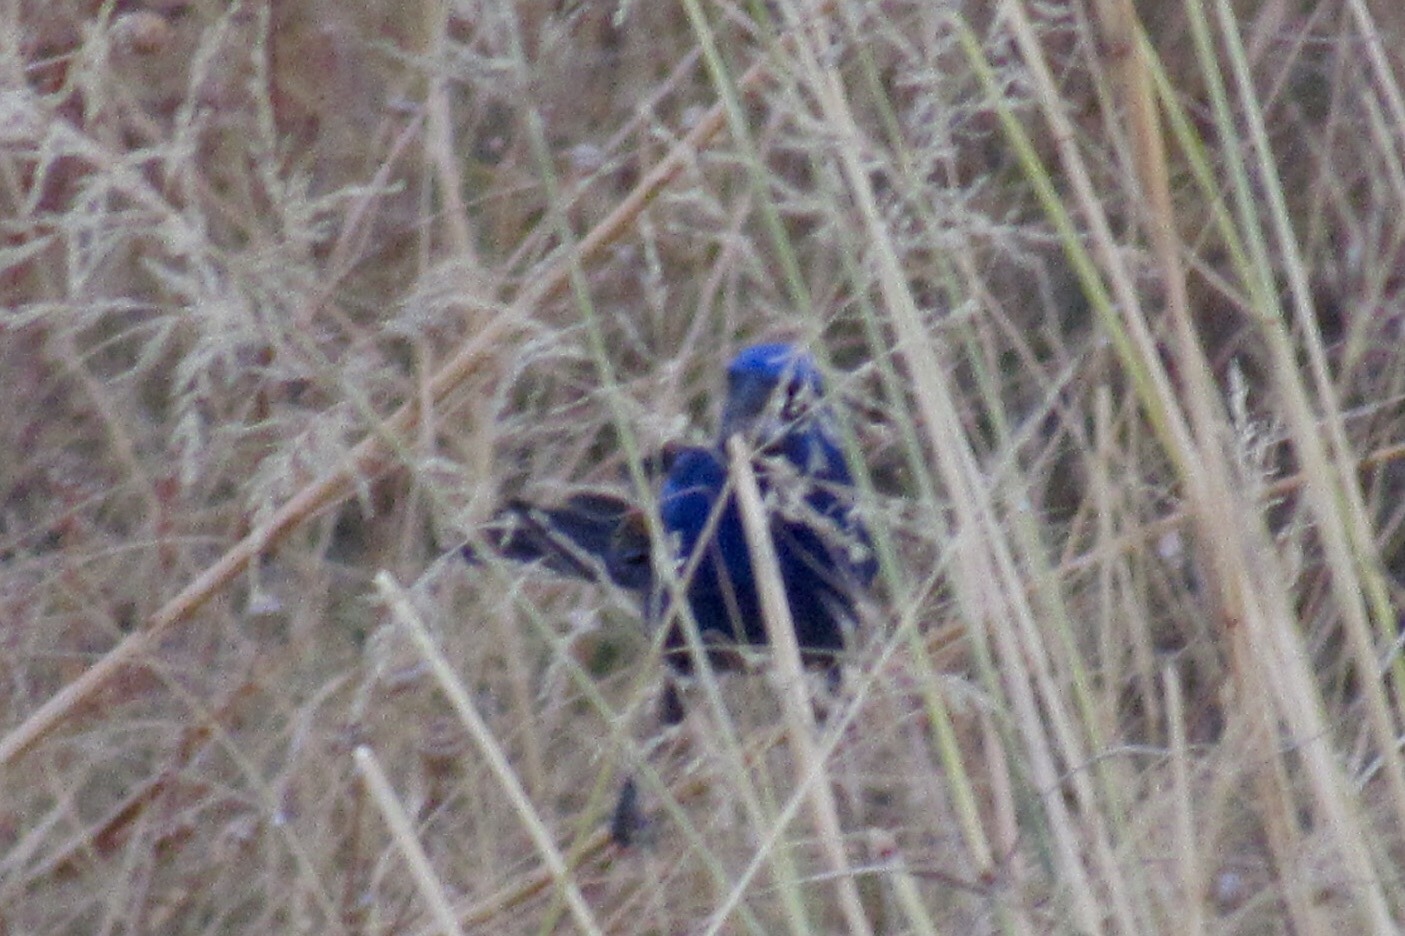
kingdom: Animalia
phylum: Chordata
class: Aves
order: Passeriformes
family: Cardinalidae
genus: Passerina
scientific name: Passerina caerulea
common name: Blue grosbeak
